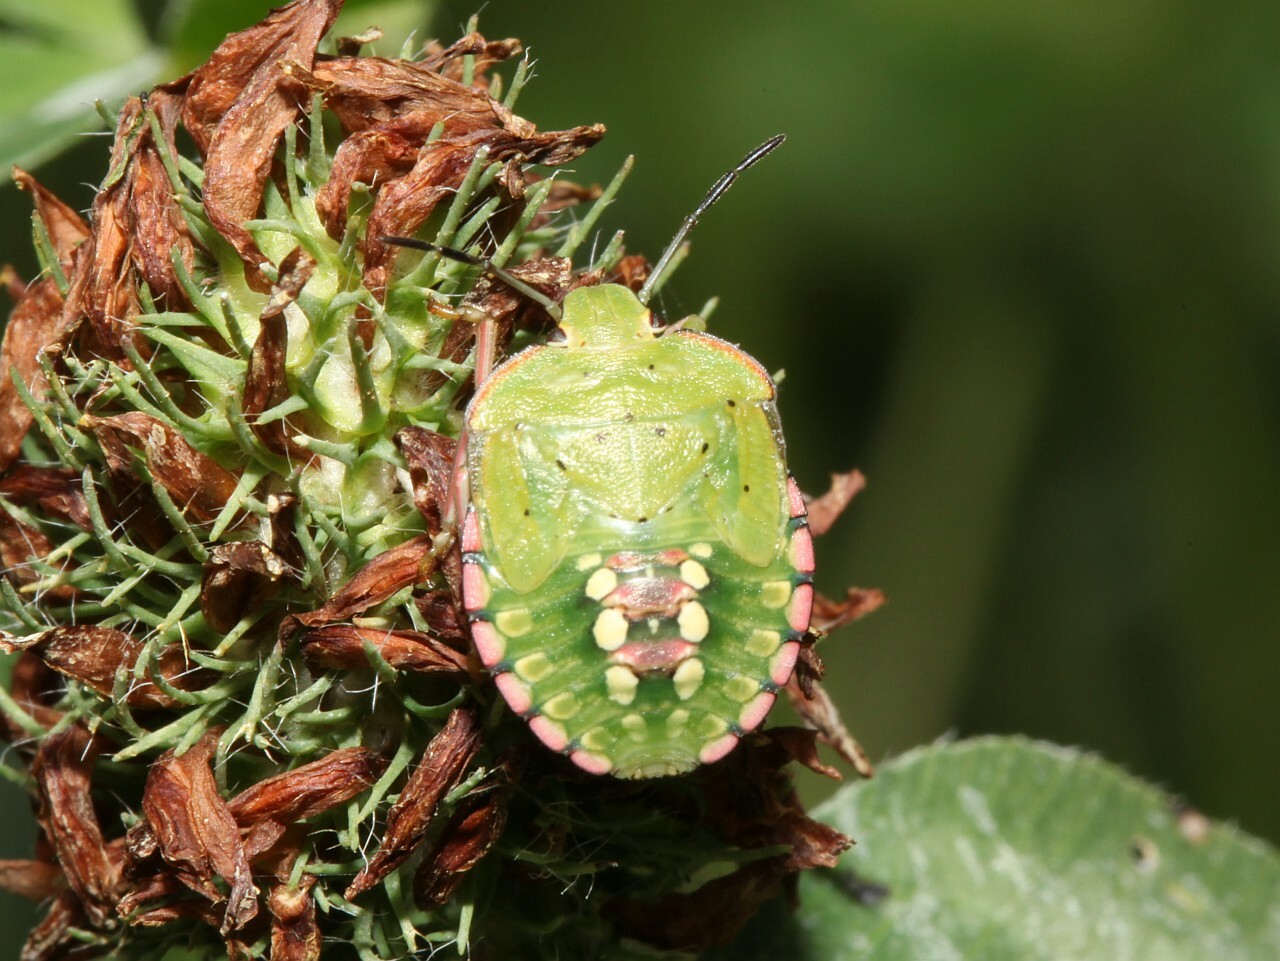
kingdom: Animalia
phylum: Arthropoda
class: Insecta
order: Hemiptera
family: Pentatomidae
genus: Nezara
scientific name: Nezara viridula
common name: Southern green stink bug
